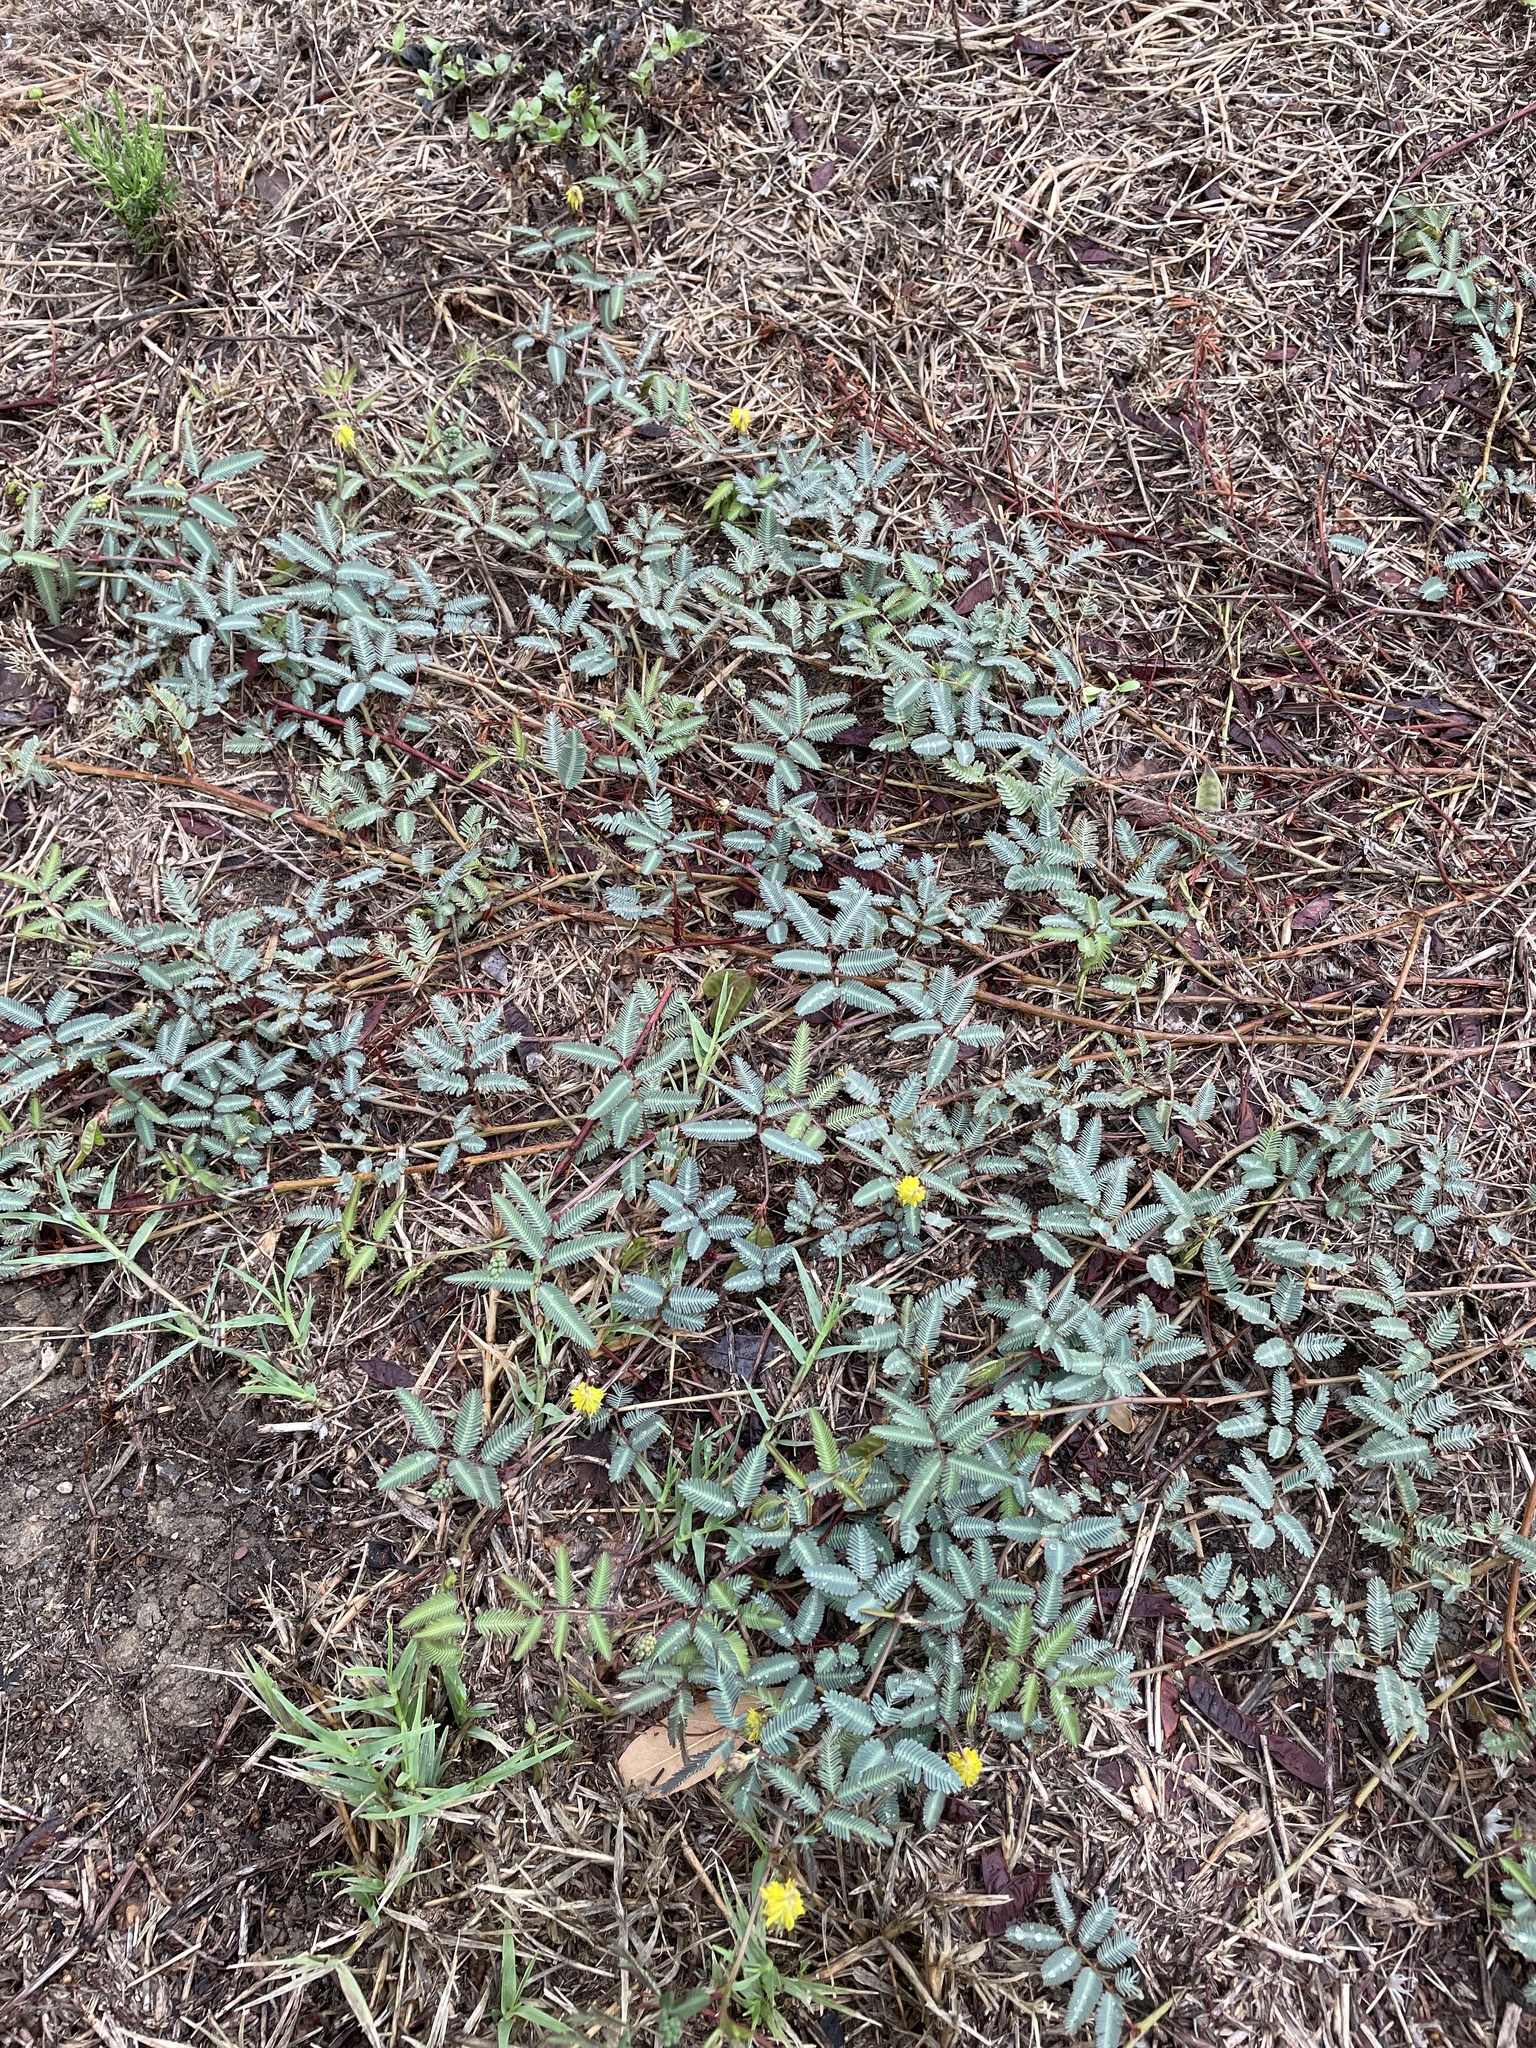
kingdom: Plantae
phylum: Tracheophyta
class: Magnoliopsida
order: Fabales
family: Fabaceae
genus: Neptunia
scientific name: Neptunia lutea
